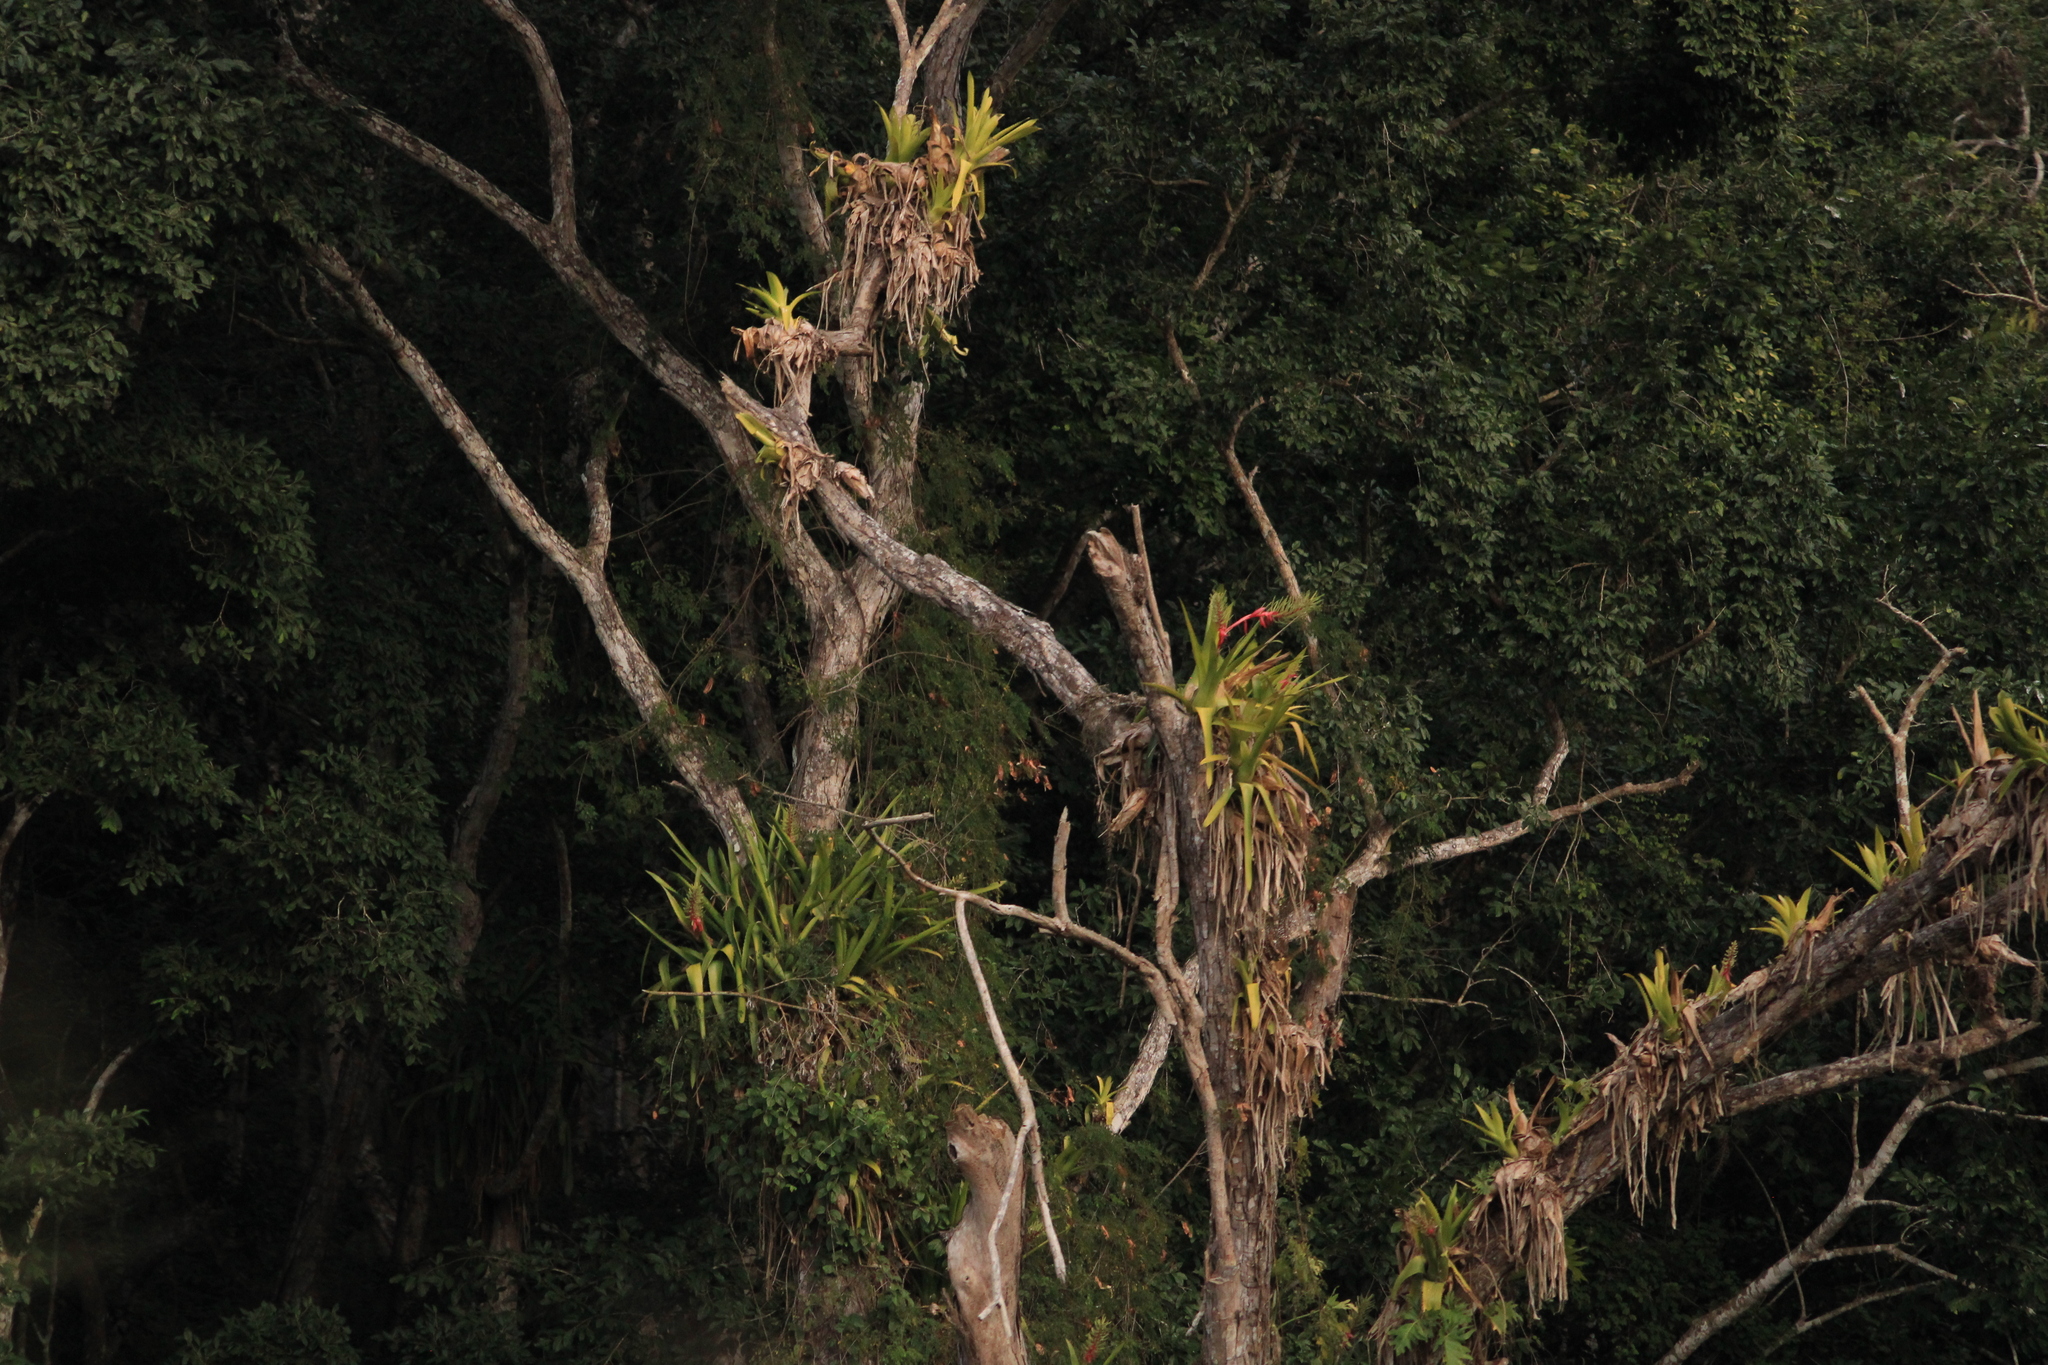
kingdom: Plantae
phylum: Tracheophyta
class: Liliopsida
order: Poales
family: Bromeliaceae
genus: Aechmea
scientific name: Aechmea bracteata
